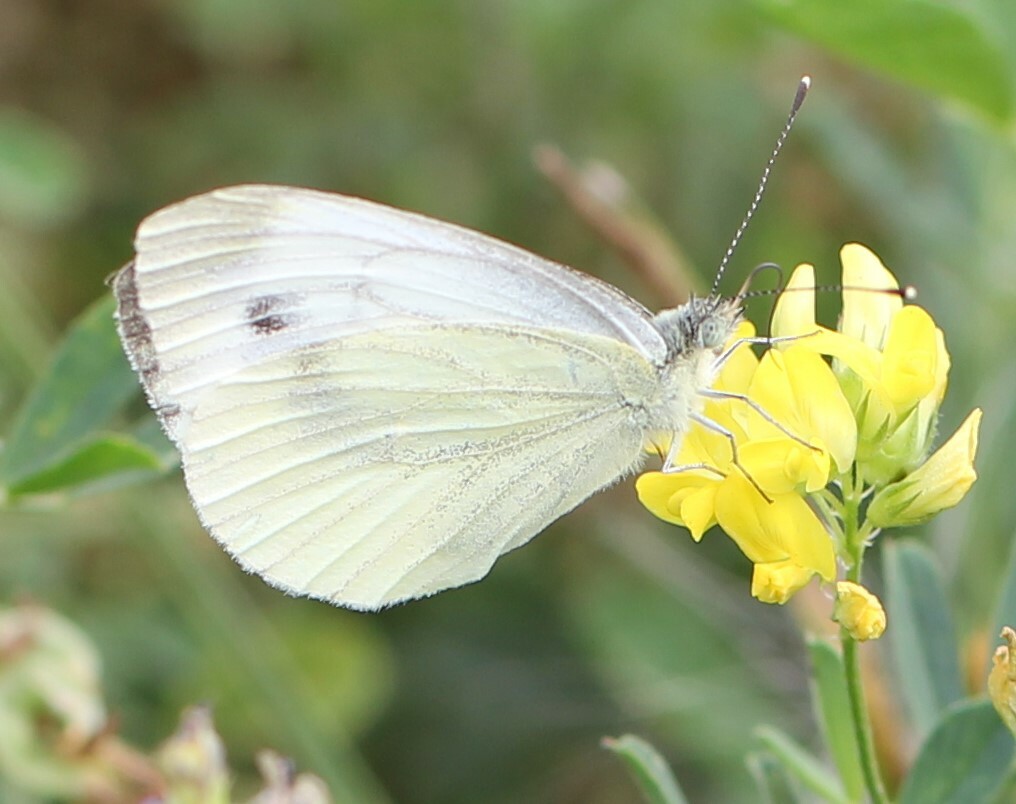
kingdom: Animalia
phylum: Arthropoda
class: Insecta
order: Lepidoptera
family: Pieridae
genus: Pieris
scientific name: Pieris napi
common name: Green-veined white
